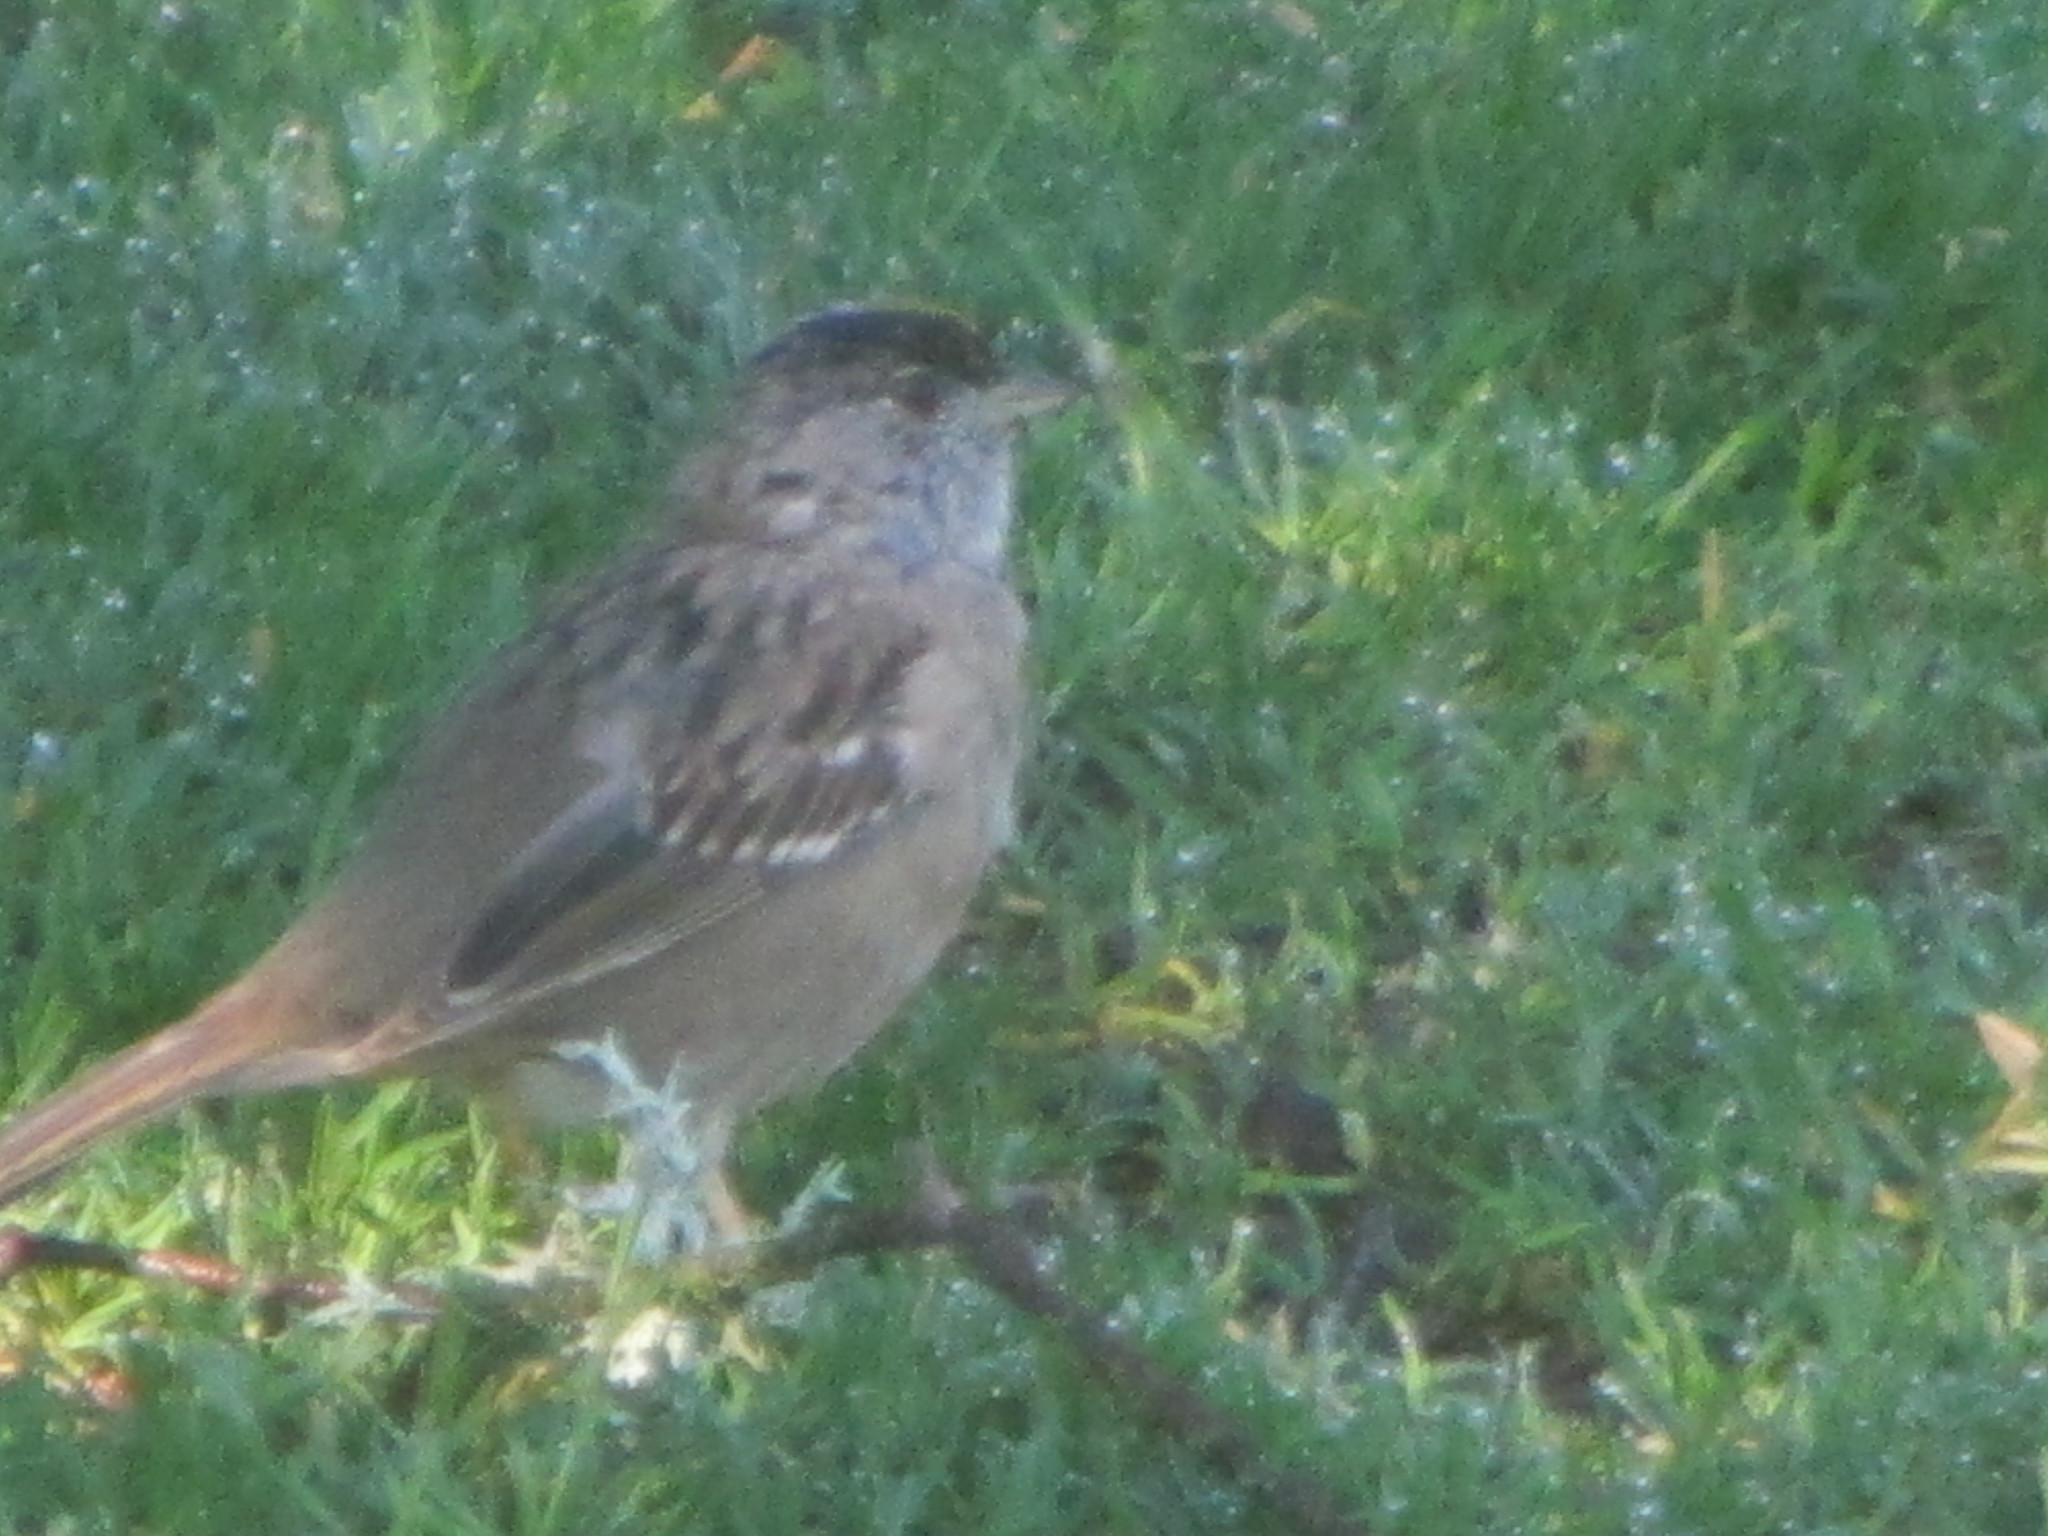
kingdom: Animalia
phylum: Chordata
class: Aves
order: Passeriformes
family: Passerellidae
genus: Zonotrichia
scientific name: Zonotrichia atricapilla
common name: Golden-crowned sparrow
